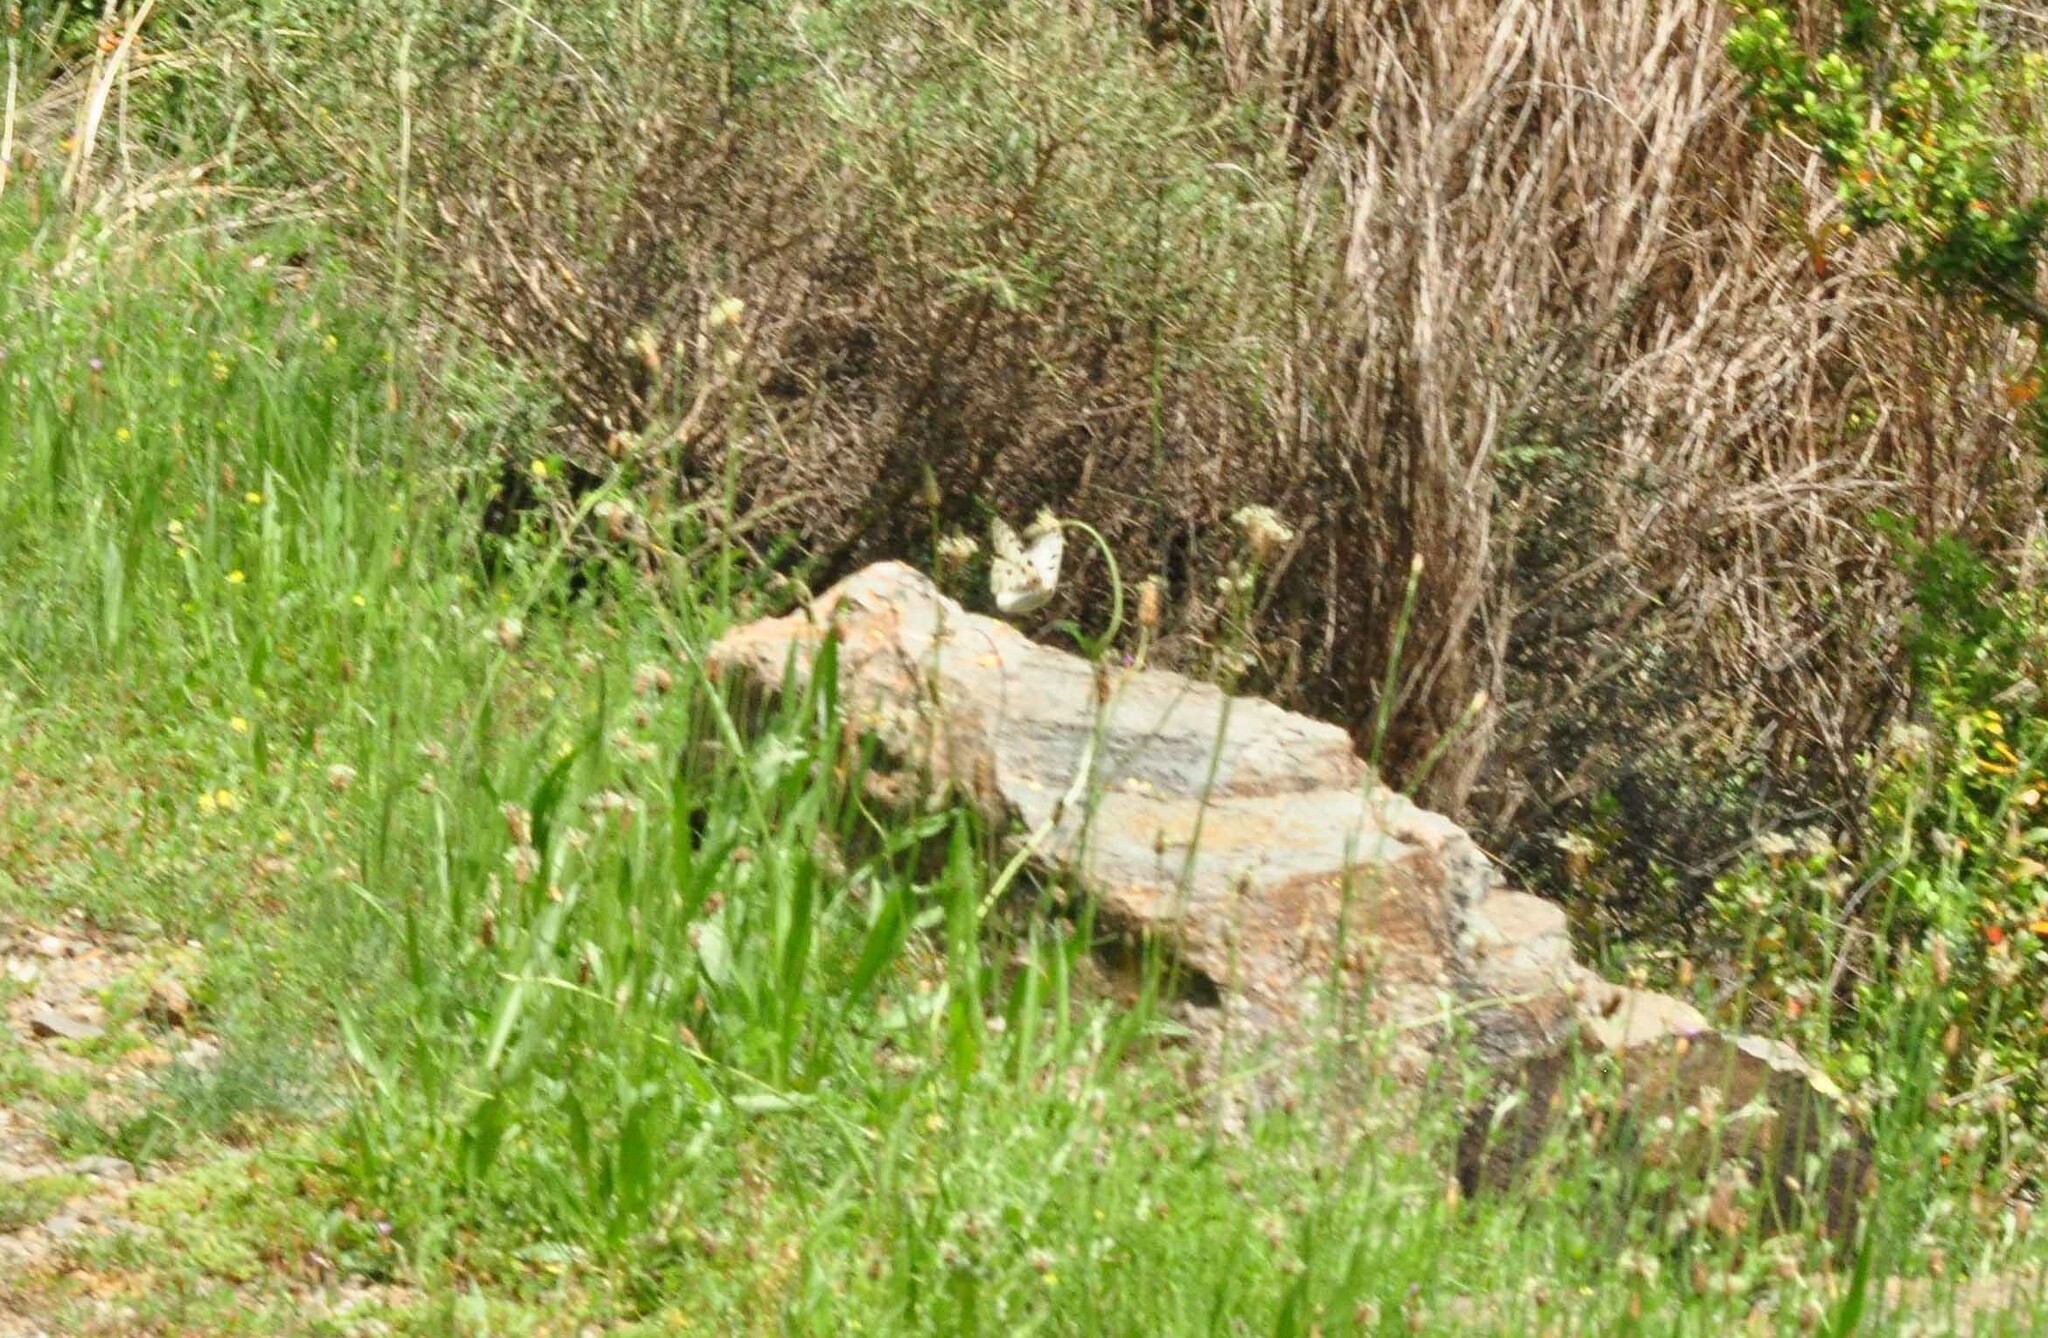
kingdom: Animalia
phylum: Arthropoda
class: Insecta
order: Lepidoptera
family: Papilionidae
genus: Parnassius
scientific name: Parnassius apollo
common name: Apollo
